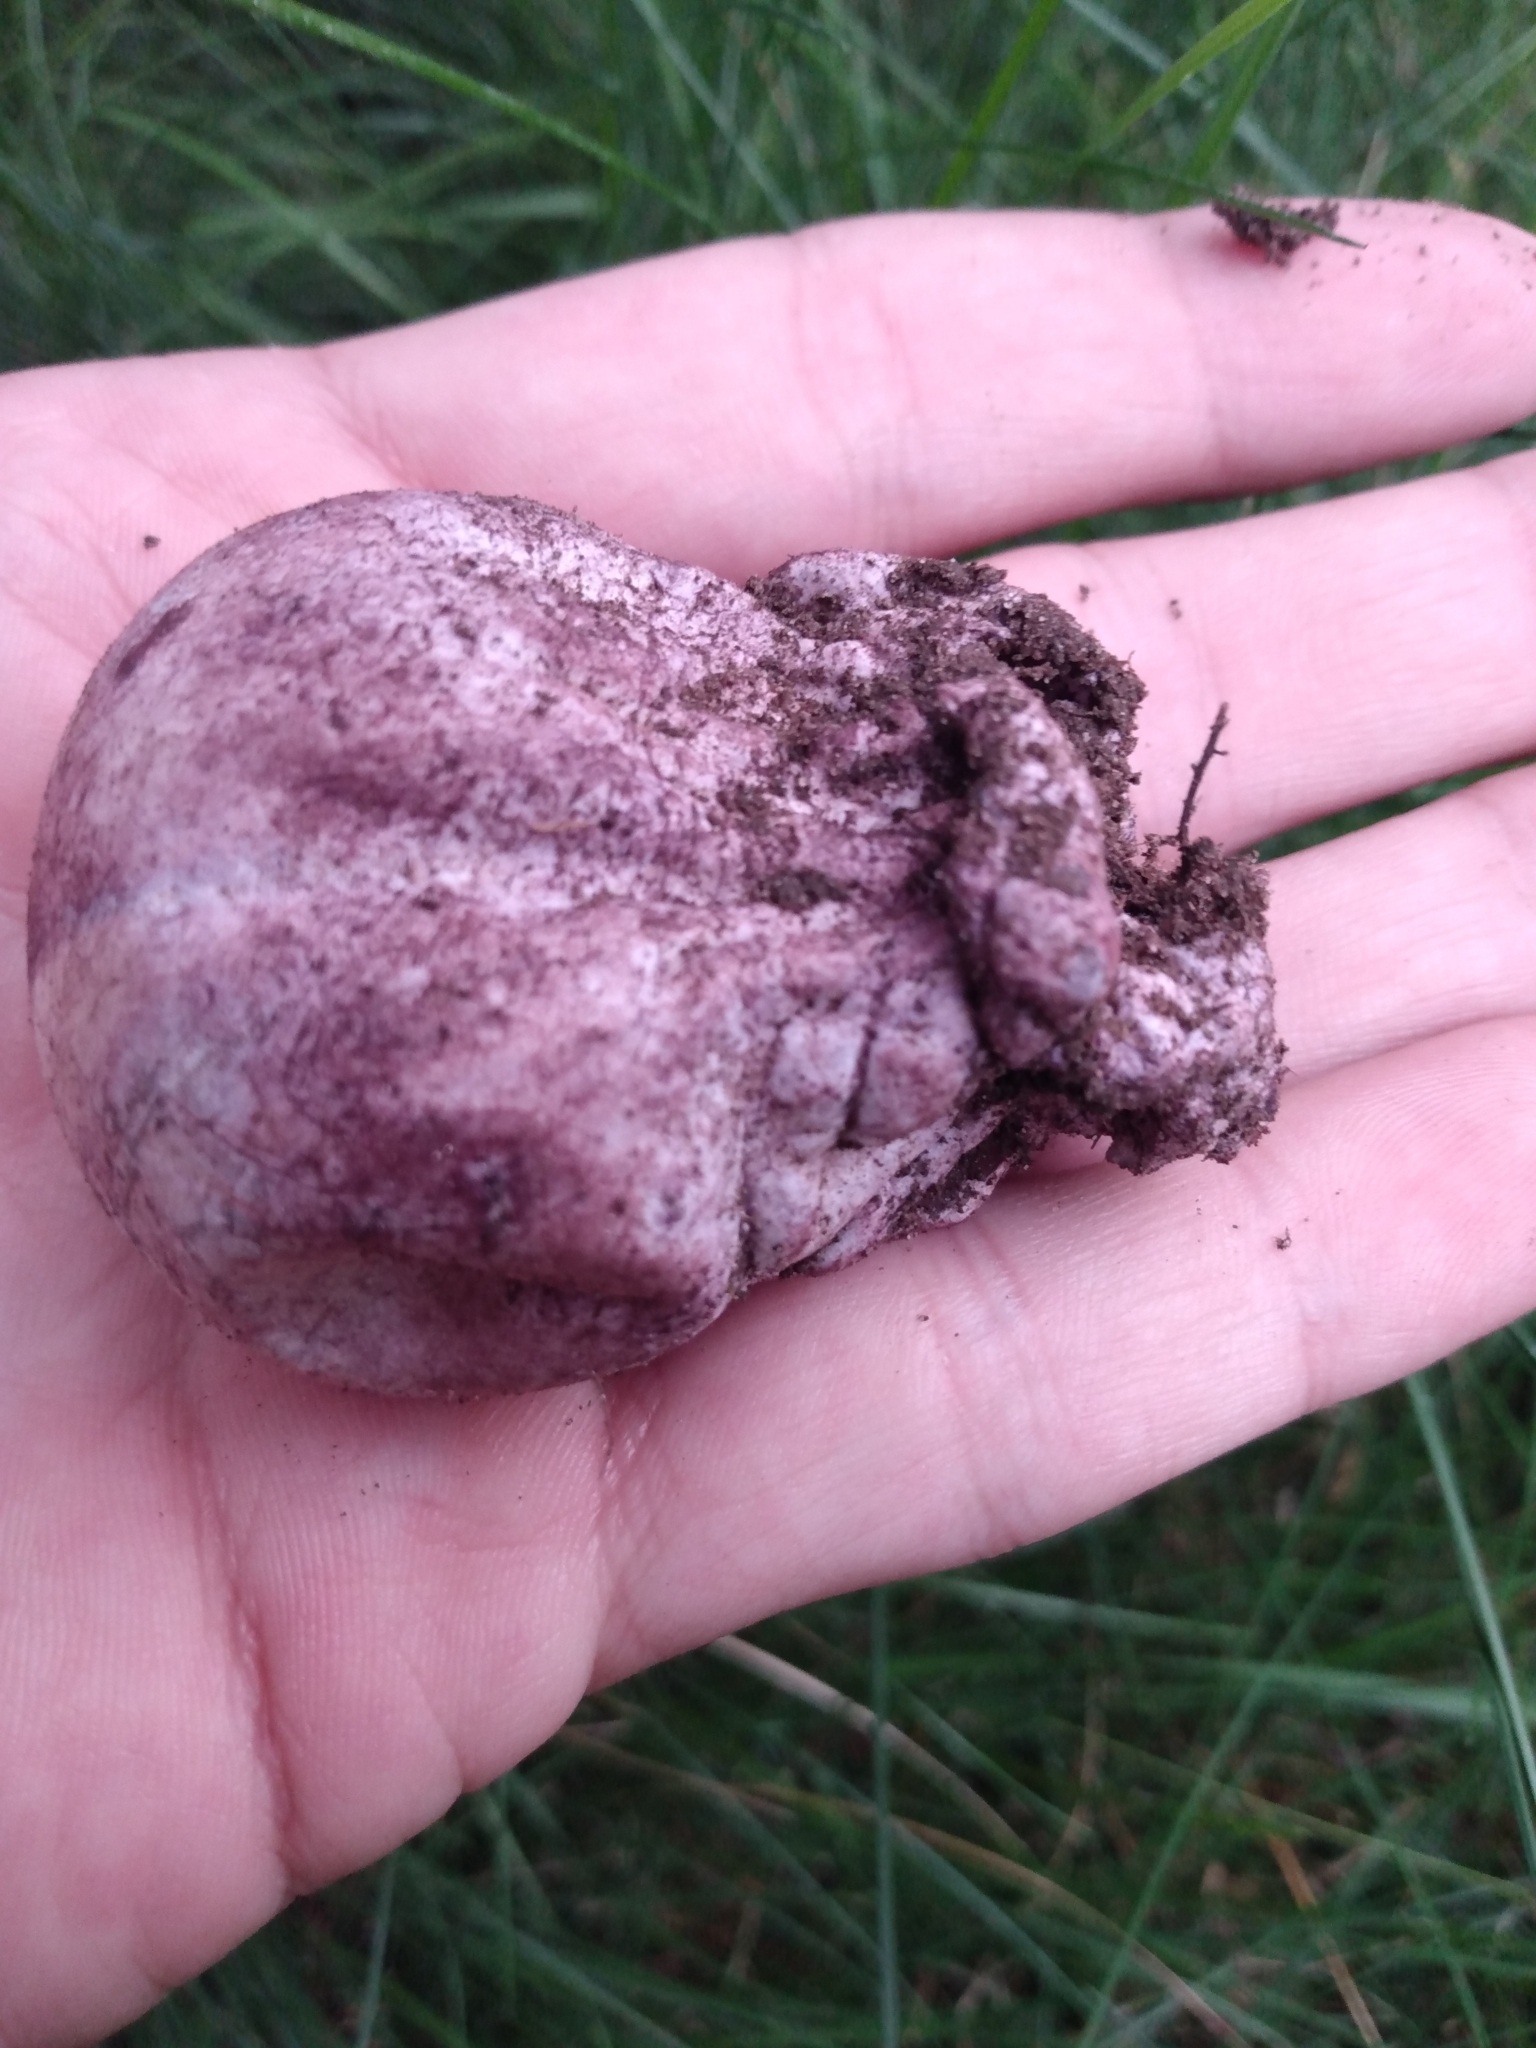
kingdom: Fungi
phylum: Basidiomycota
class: Agaricomycetes
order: Phallales
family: Phallaceae
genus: Phallus
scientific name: Phallus hadriani
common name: Sand stinkhorn
